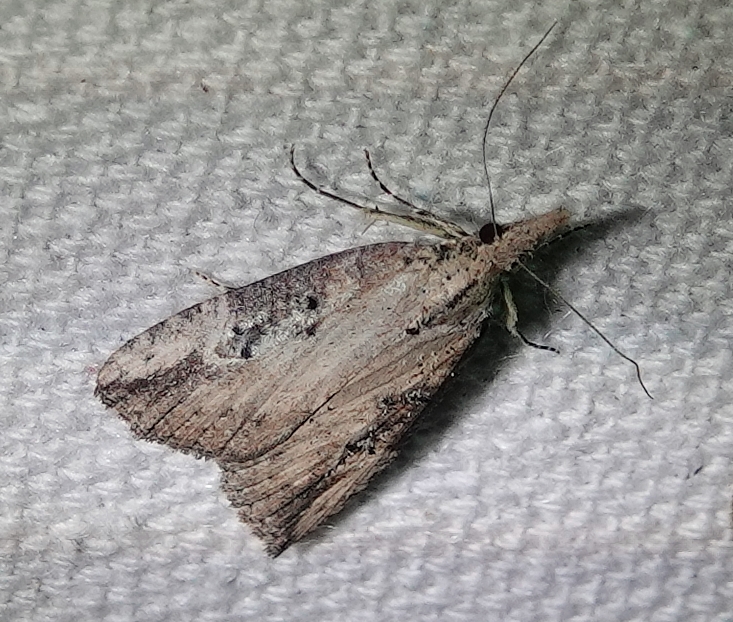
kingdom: Animalia
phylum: Arthropoda
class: Insecta
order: Lepidoptera
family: Erebidae
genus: Hypena
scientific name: Hypena humuli
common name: Hop vine snout
